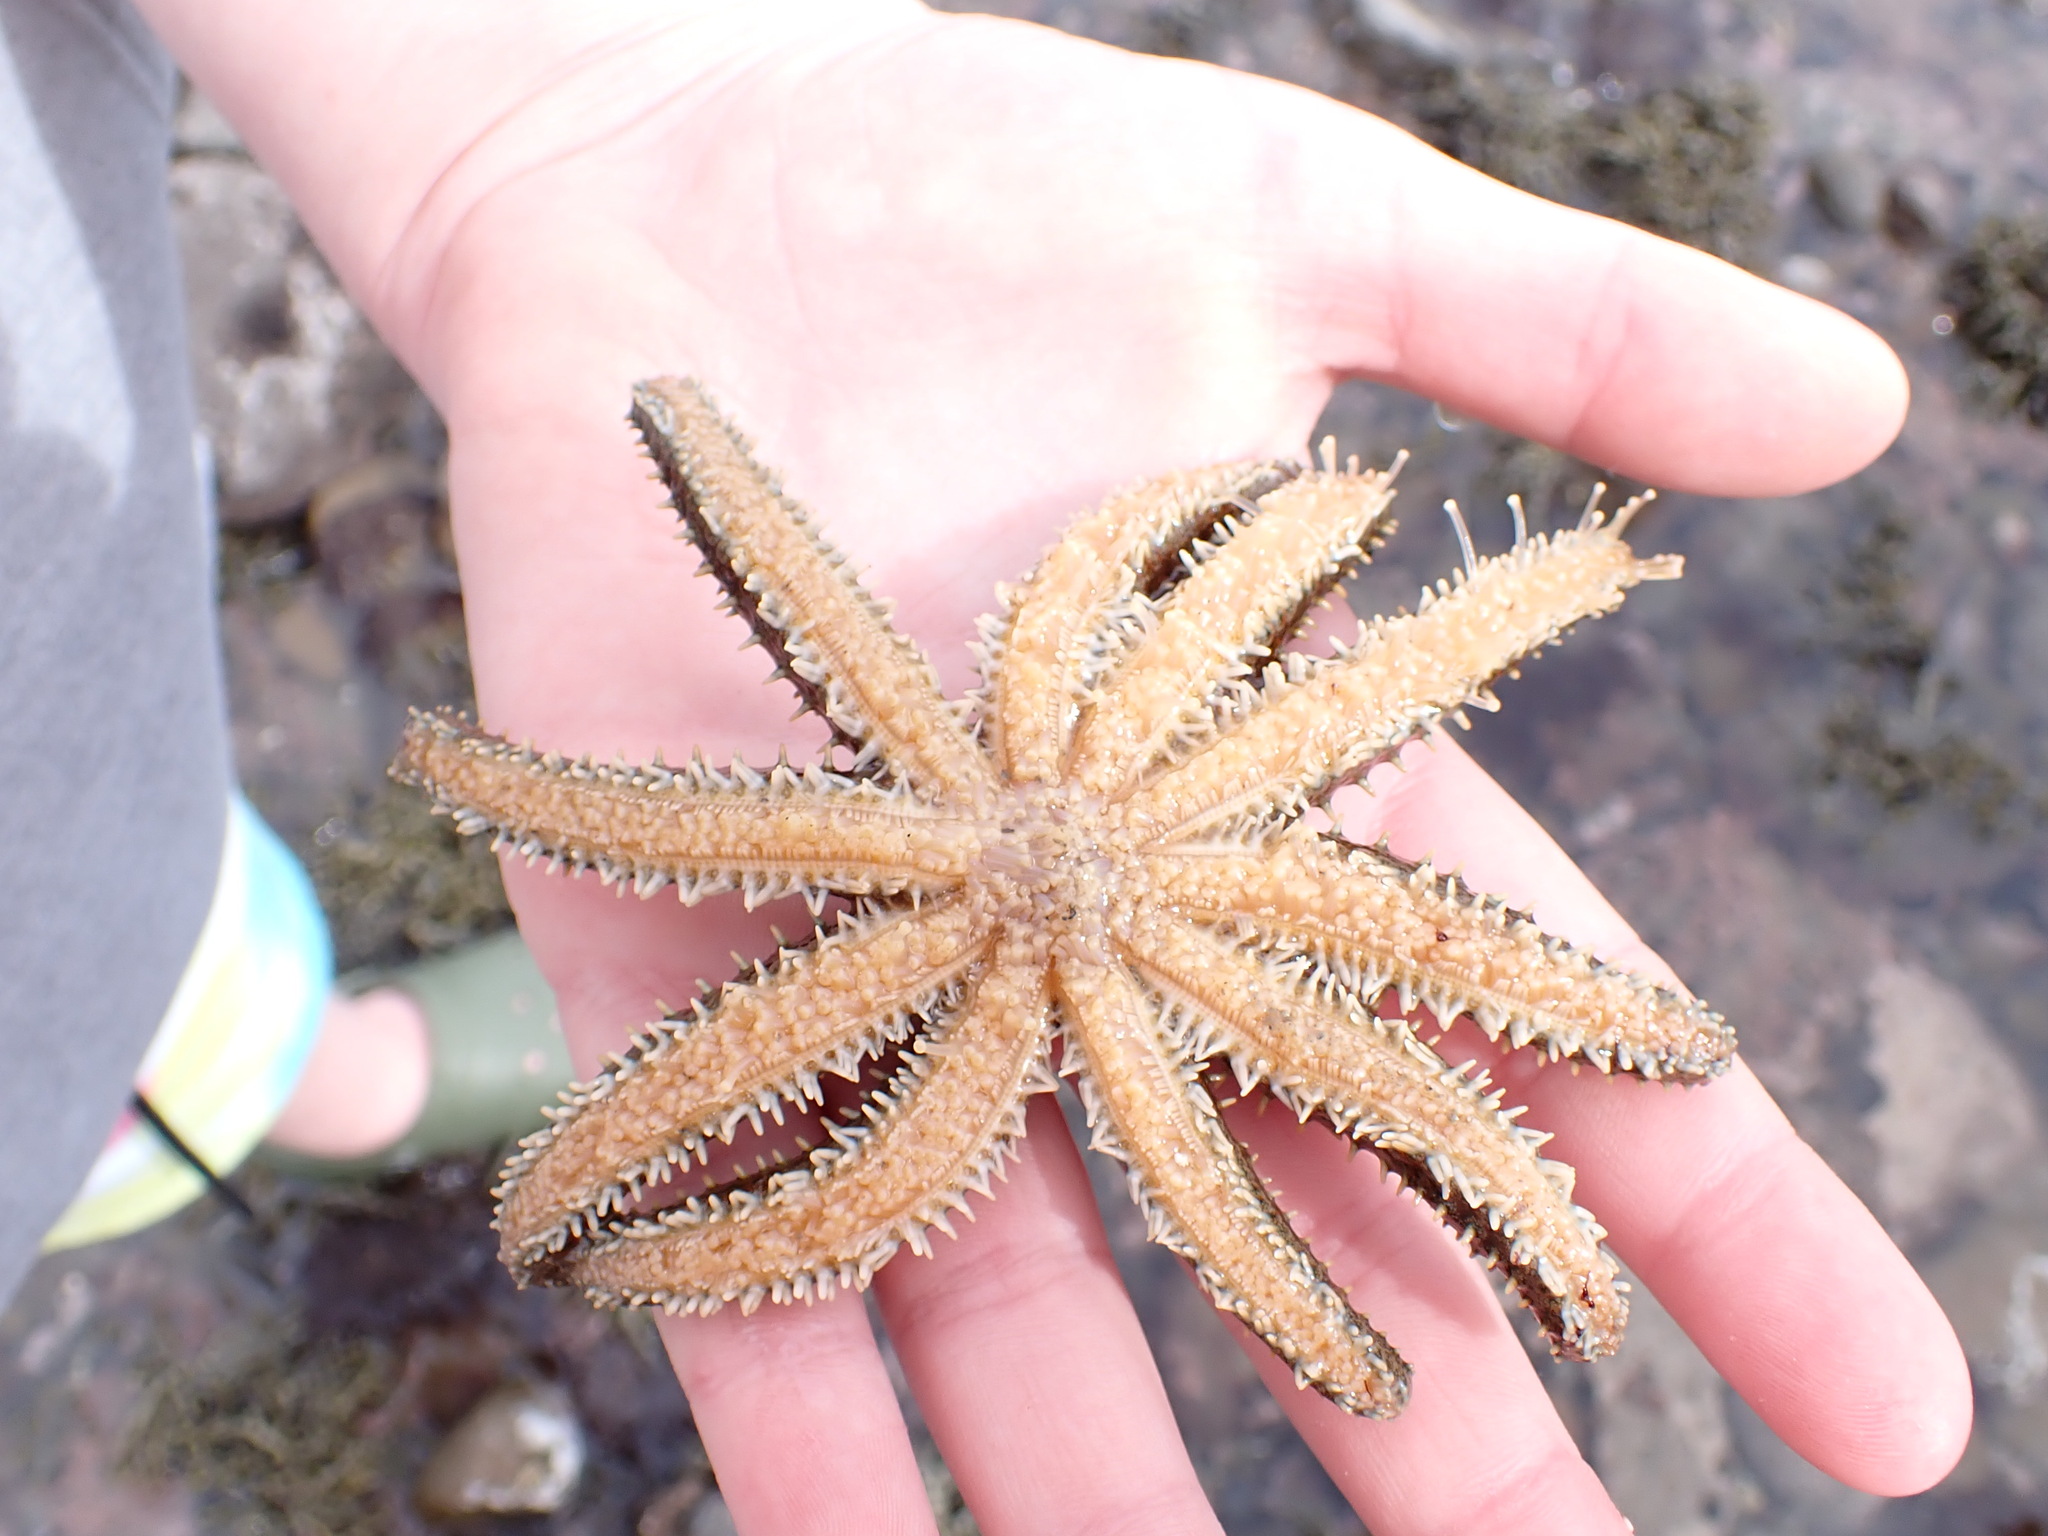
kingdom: Animalia
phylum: Echinodermata
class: Asteroidea
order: Forcipulatida
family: Asteriidae
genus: Coscinasterias
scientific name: Coscinasterias muricata
